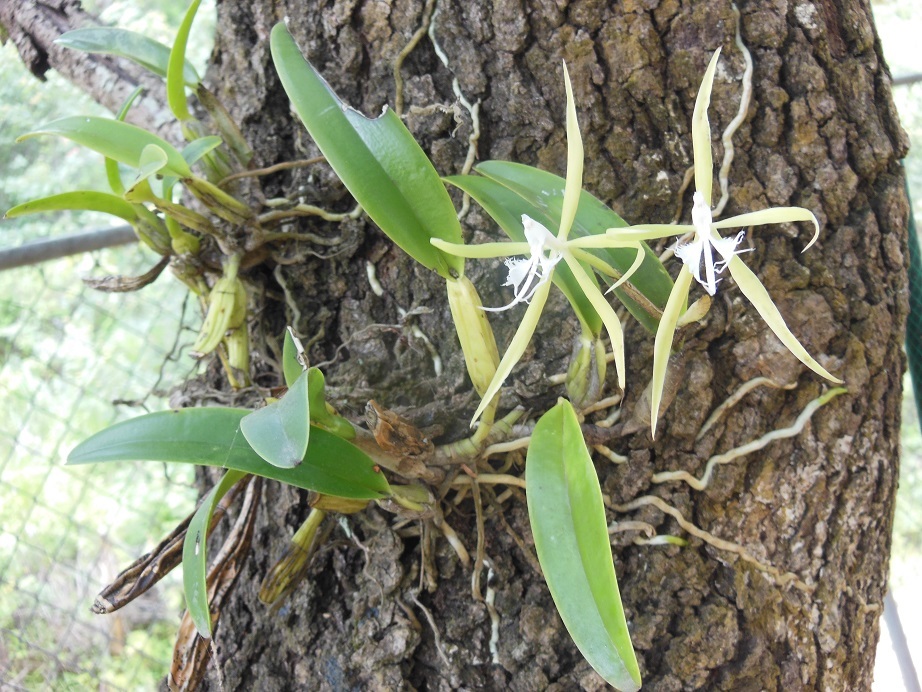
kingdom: Plantae
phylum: Tracheophyta
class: Liliopsida
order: Asparagales
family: Orchidaceae
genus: Epidendrum
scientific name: Epidendrum ciliare
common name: Eyelash orchid
